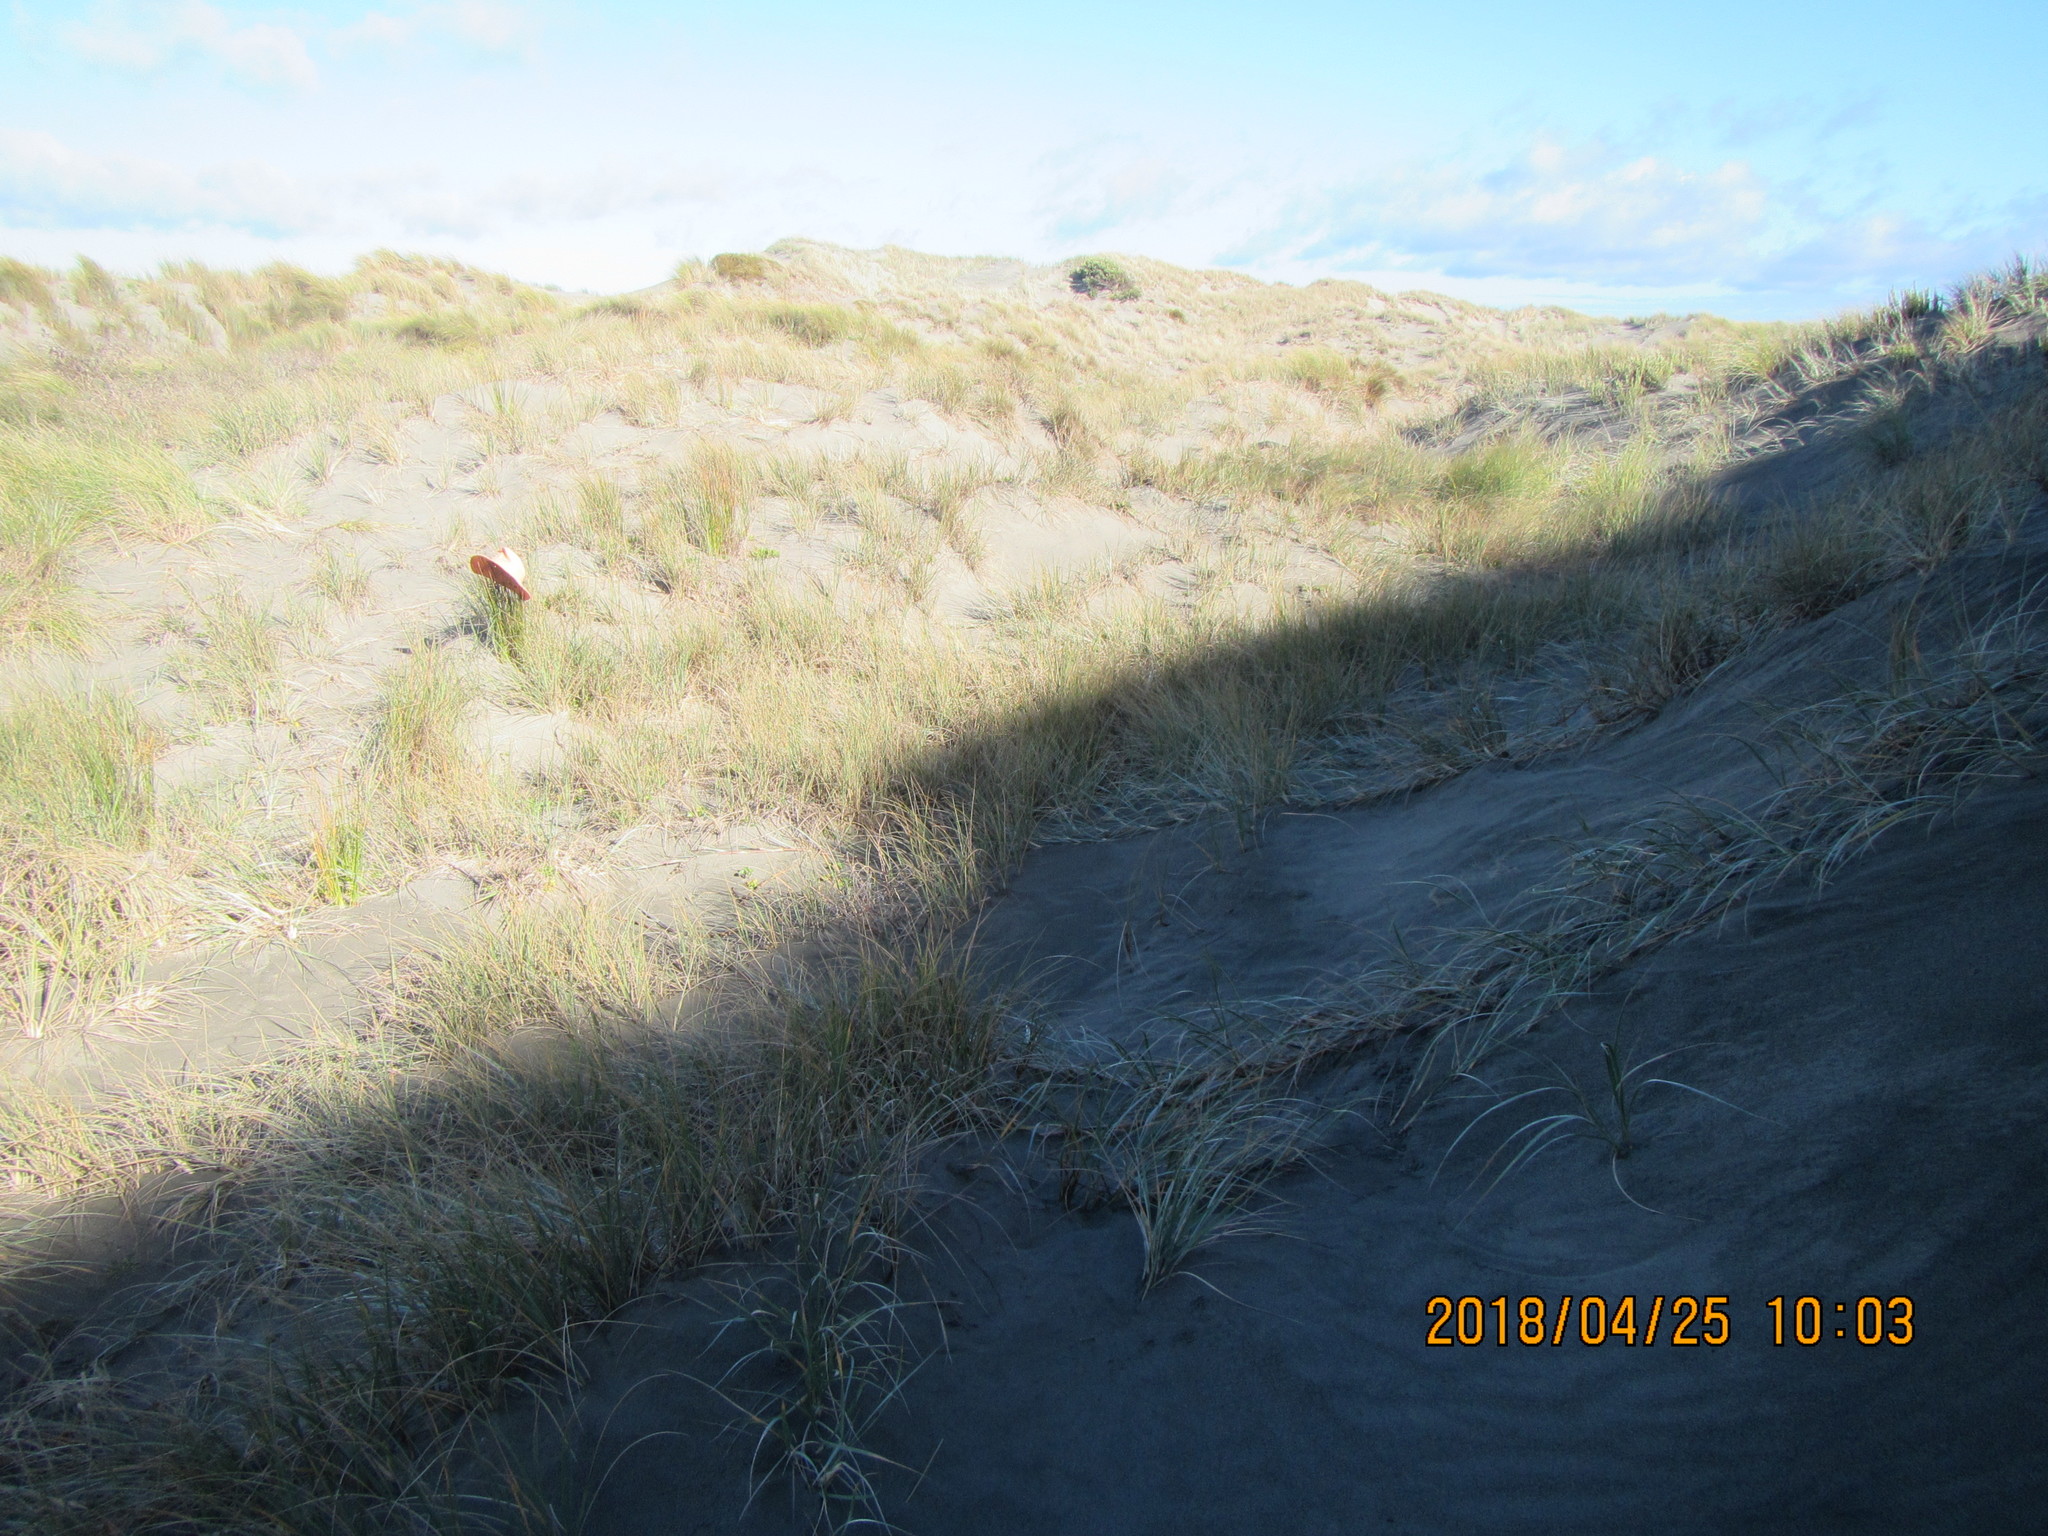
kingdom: Plantae
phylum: Tracheophyta
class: Liliopsida
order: Poales
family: Cyperaceae
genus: Ficinia
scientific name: Ficinia nodosa
